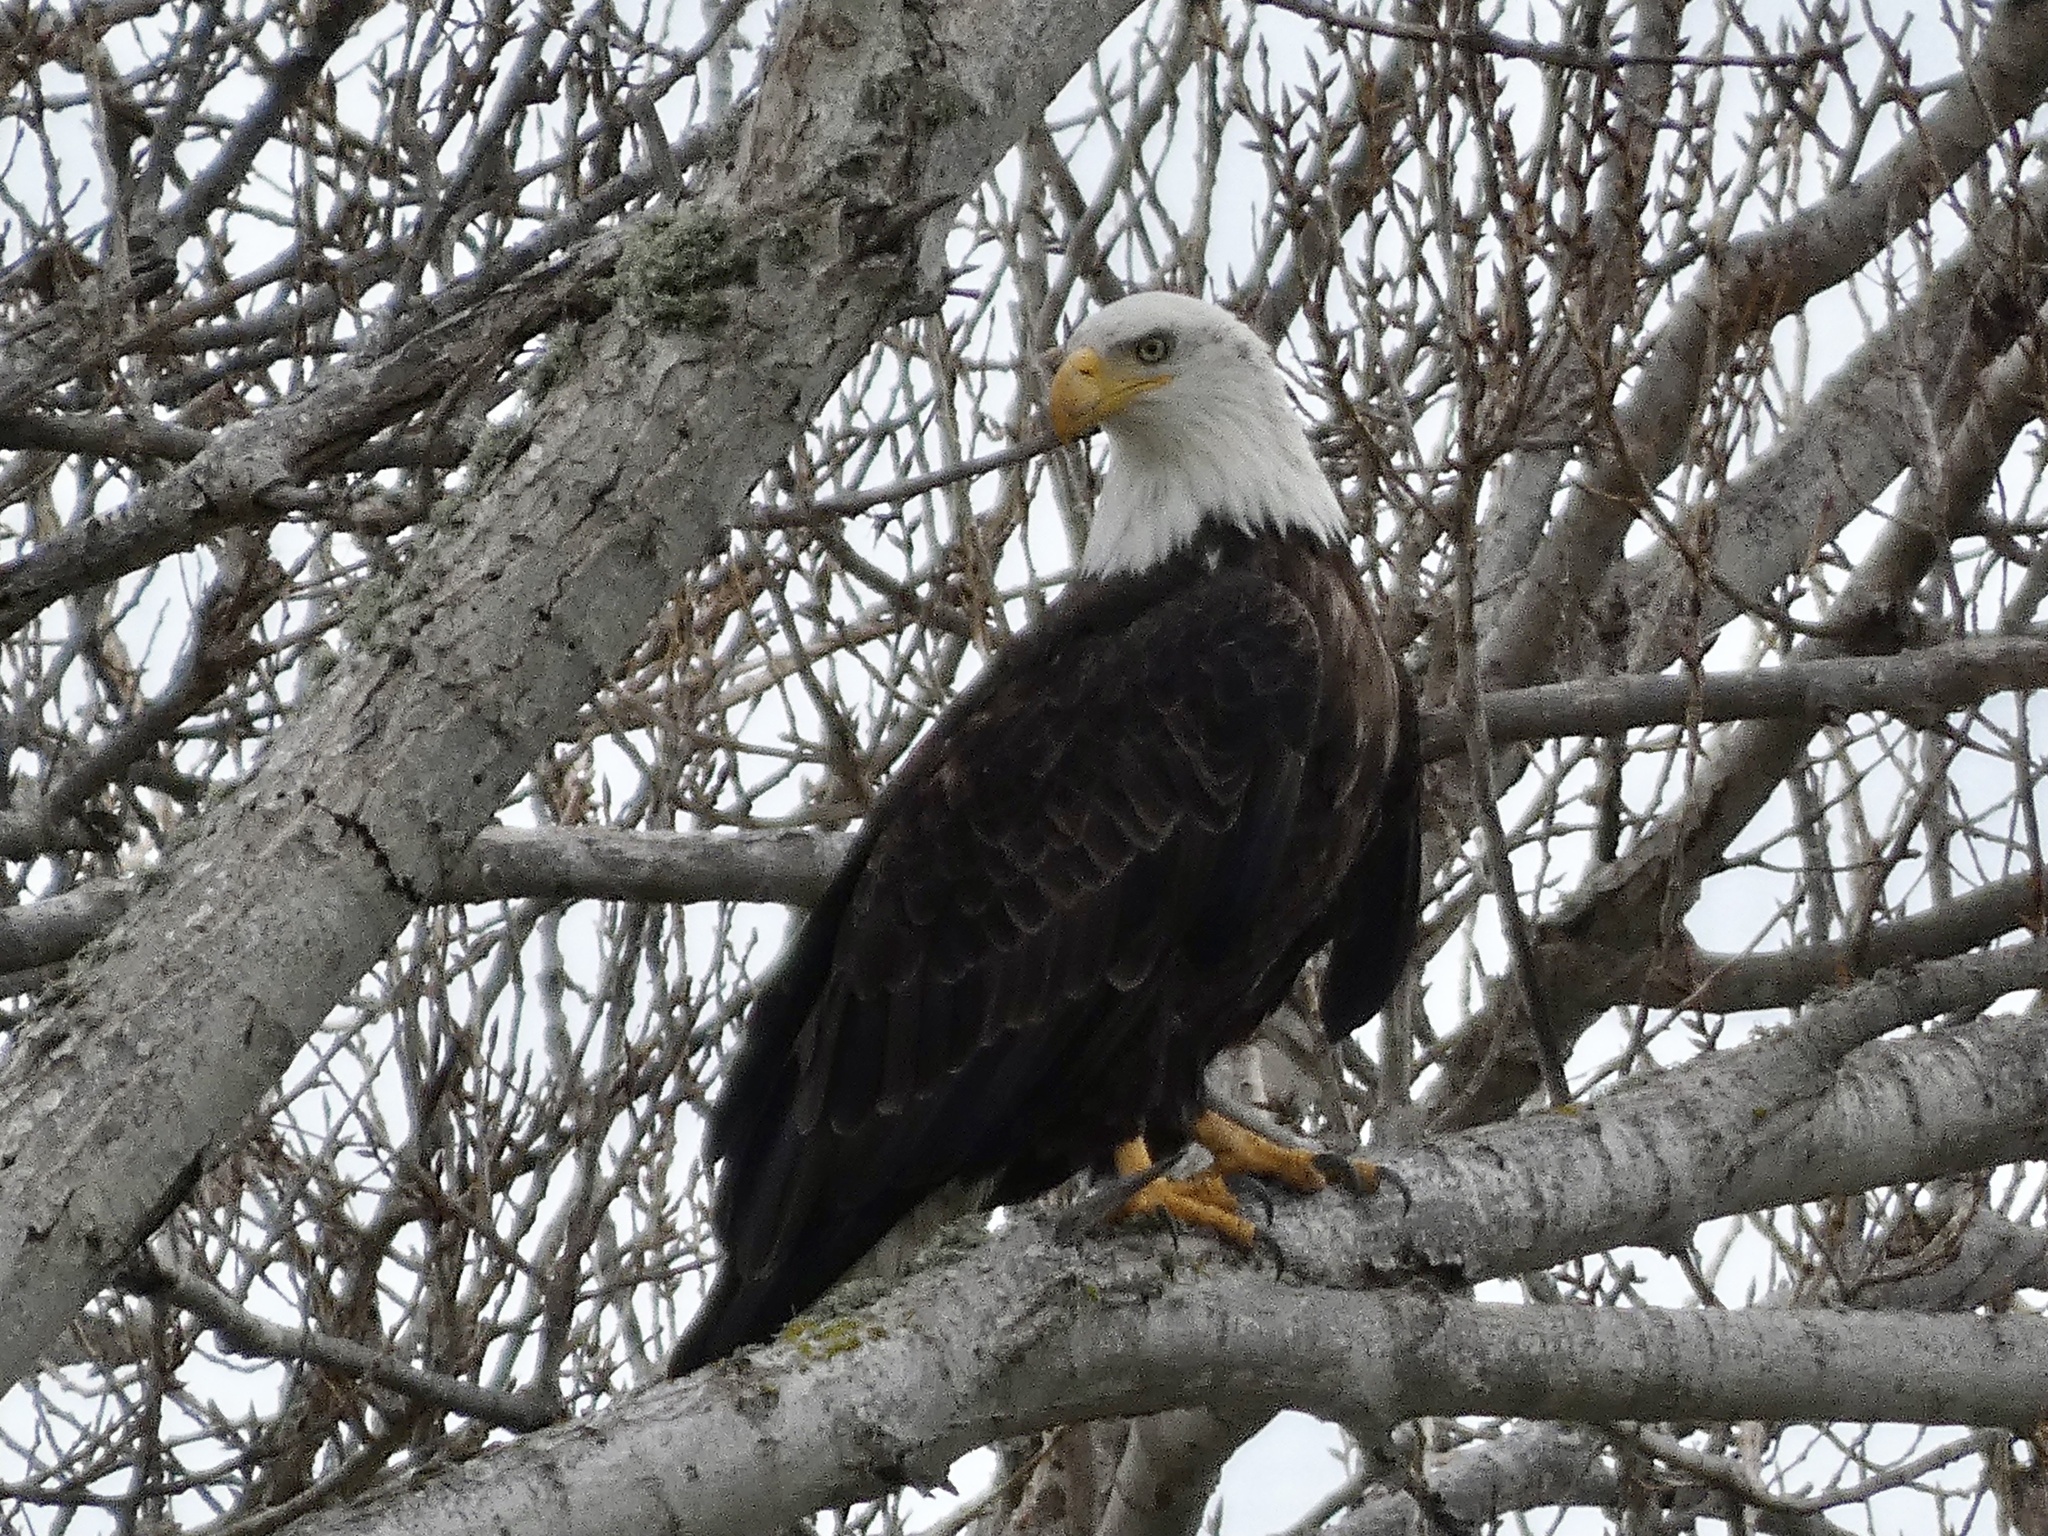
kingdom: Animalia
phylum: Chordata
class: Aves
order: Accipitriformes
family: Accipitridae
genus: Haliaeetus
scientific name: Haliaeetus leucocephalus
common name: Bald eagle
